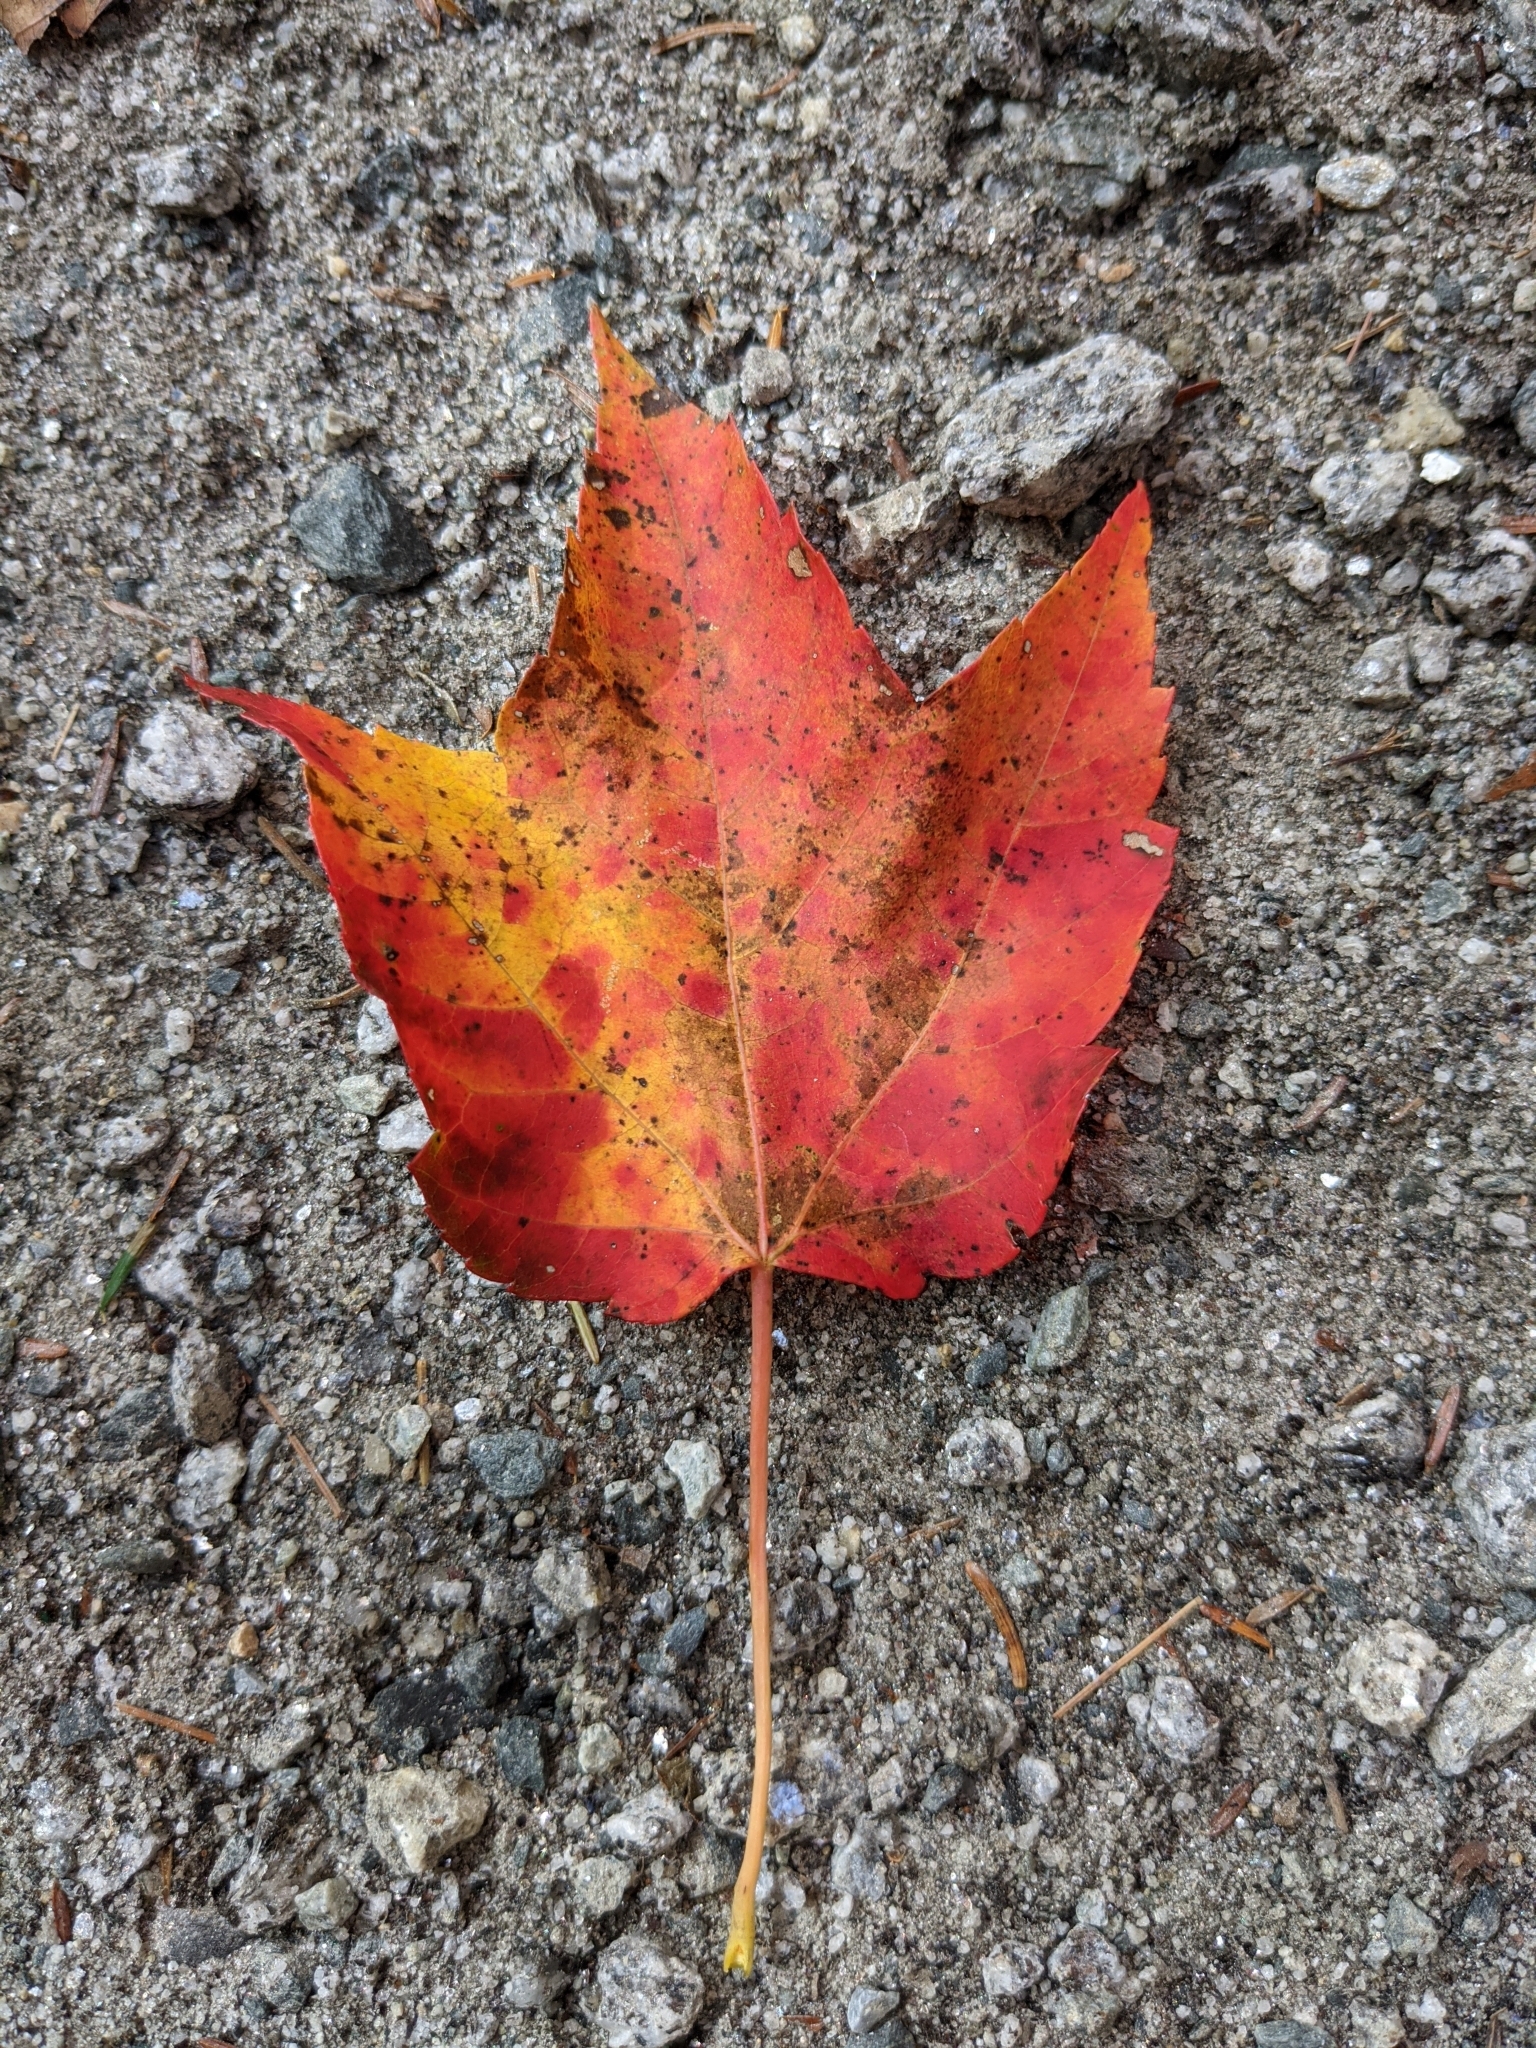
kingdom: Plantae
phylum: Tracheophyta
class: Magnoliopsida
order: Sapindales
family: Sapindaceae
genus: Acer
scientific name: Acer rubrum
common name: Red maple
